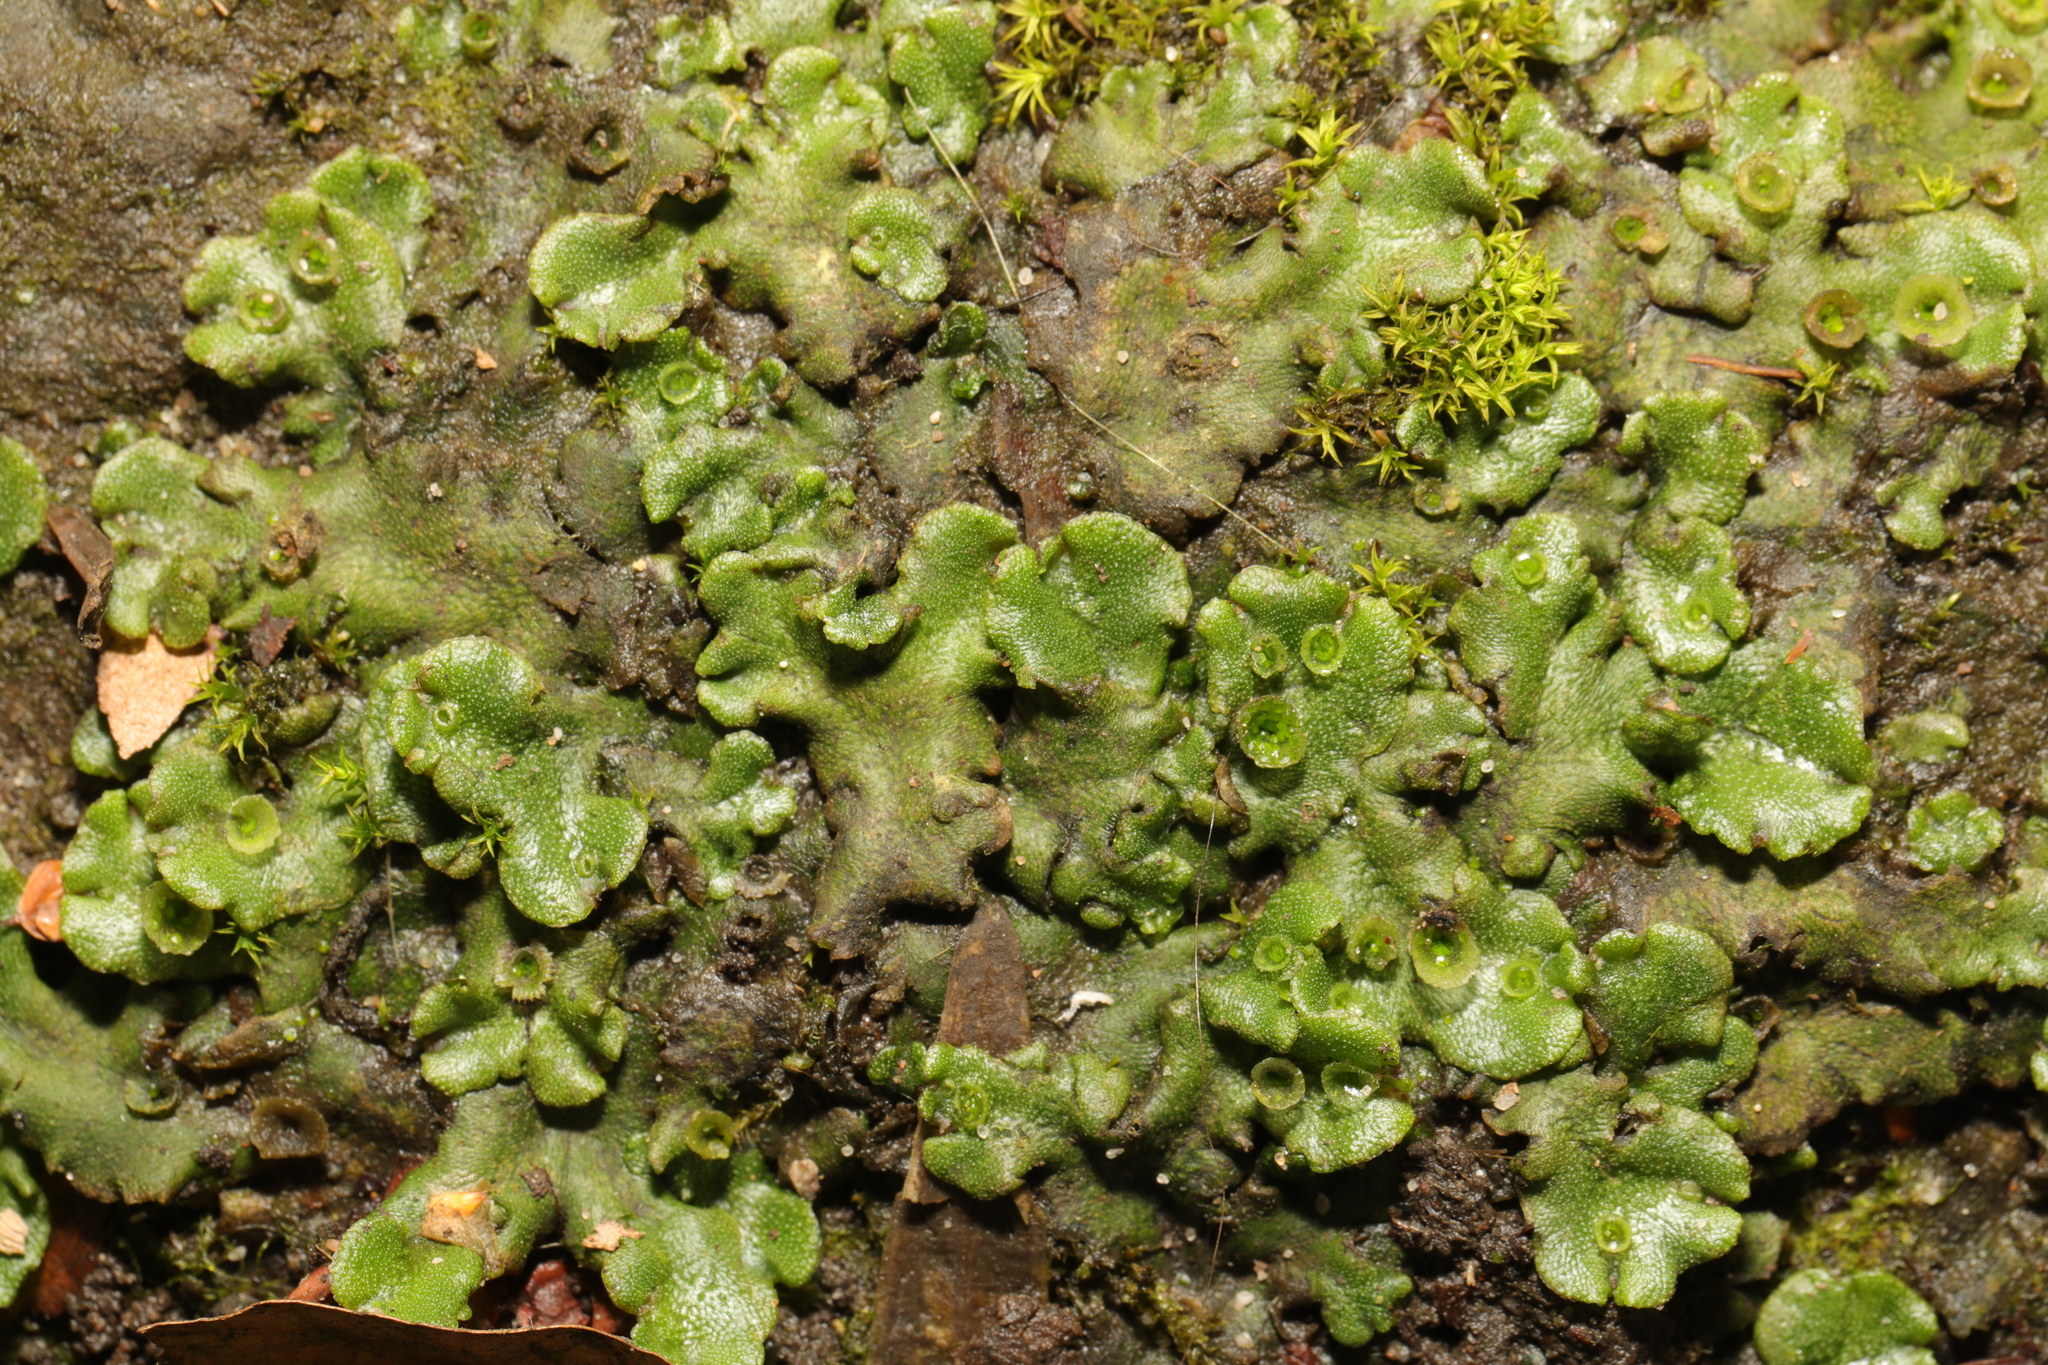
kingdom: Plantae
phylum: Marchantiophyta
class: Marchantiopsida
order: Marchantiales
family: Marchantiaceae
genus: Marchantia
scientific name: Marchantia polymorpha
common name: Common liverwort
